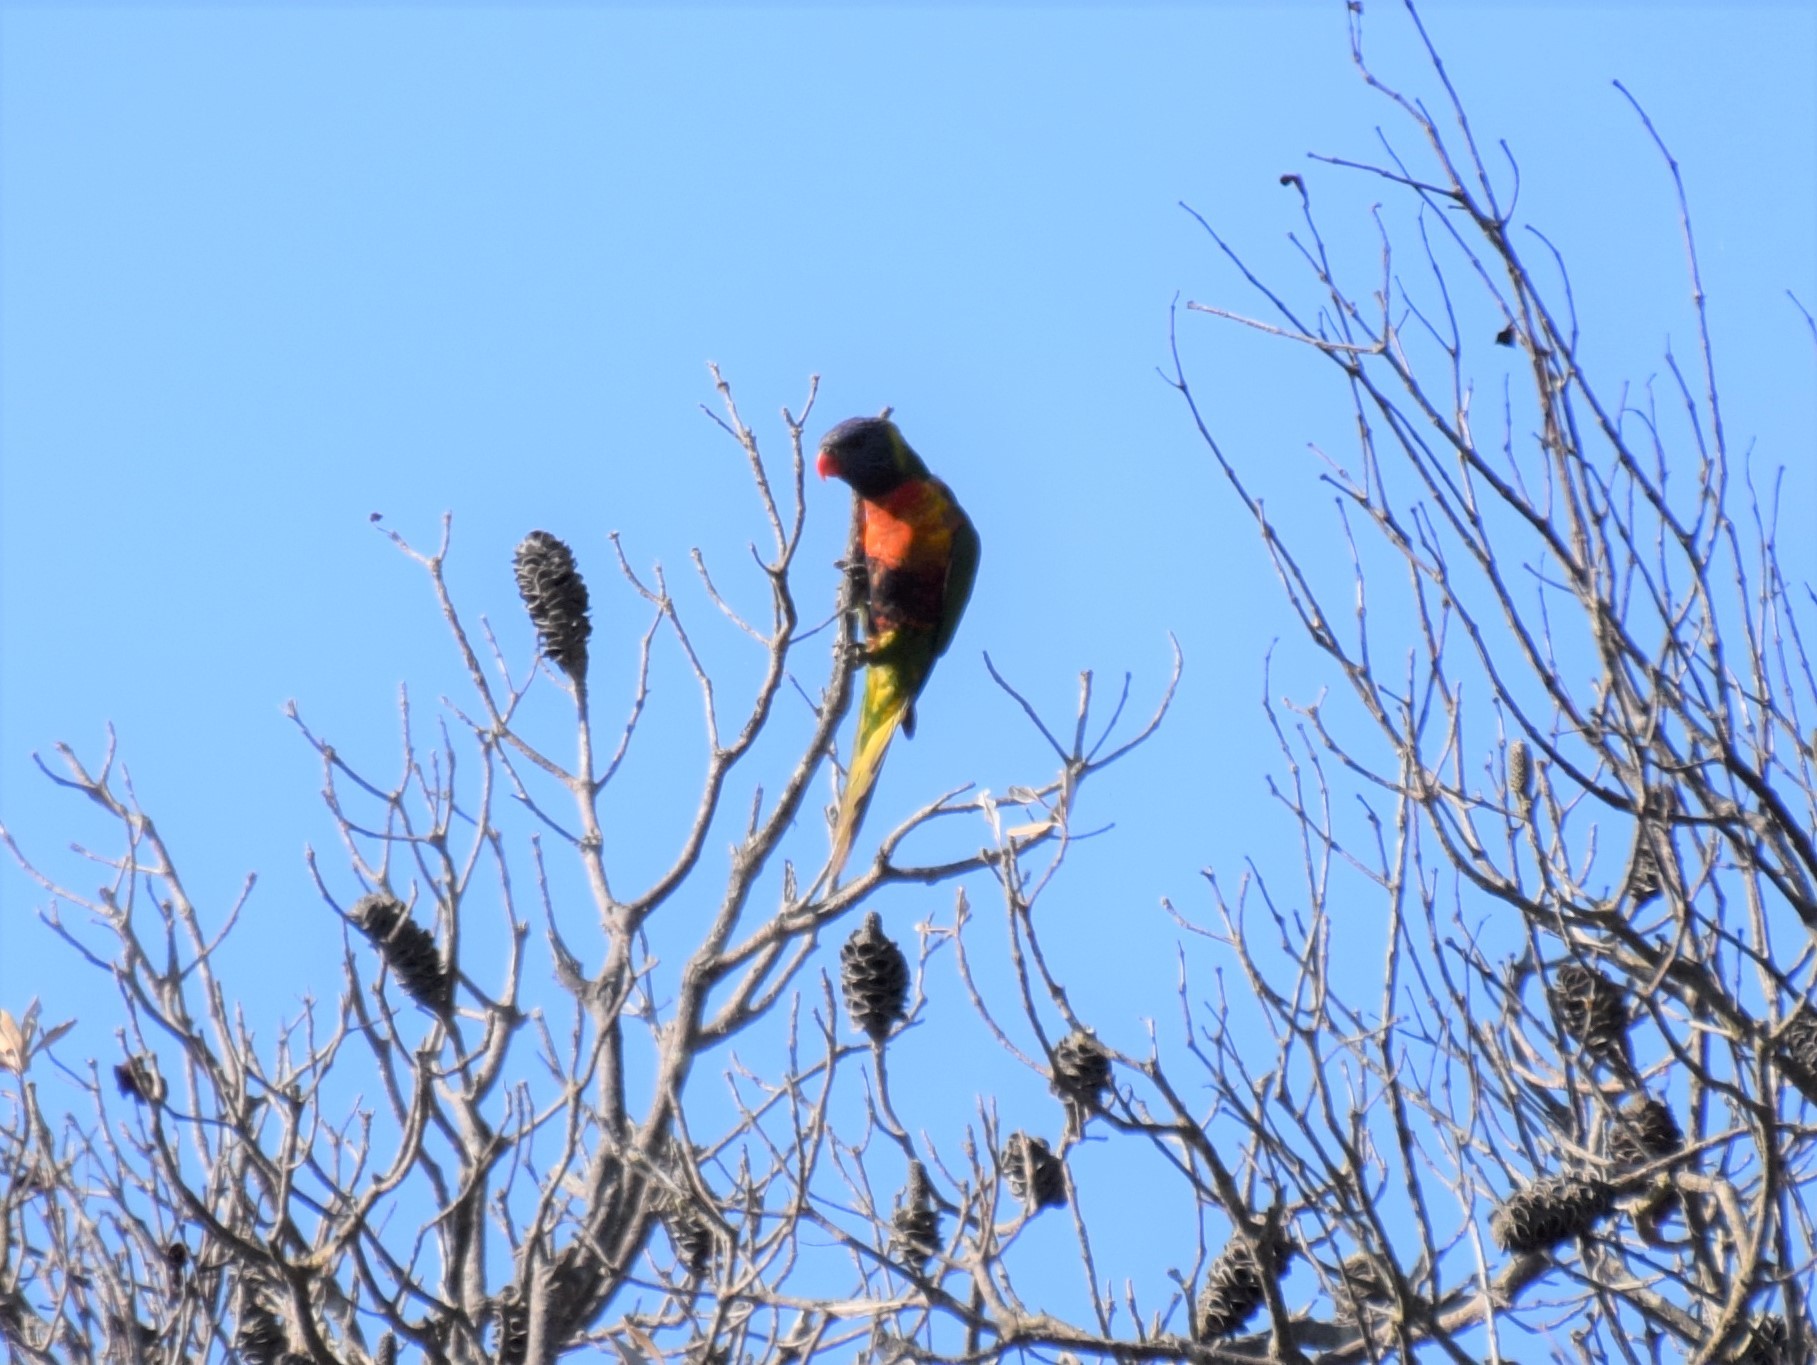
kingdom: Animalia
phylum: Chordata
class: Aves
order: Psittaciformes
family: Psittacidae
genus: Trichoglossus
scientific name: Trichoglossus haematodus
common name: Coconut lorikeet
